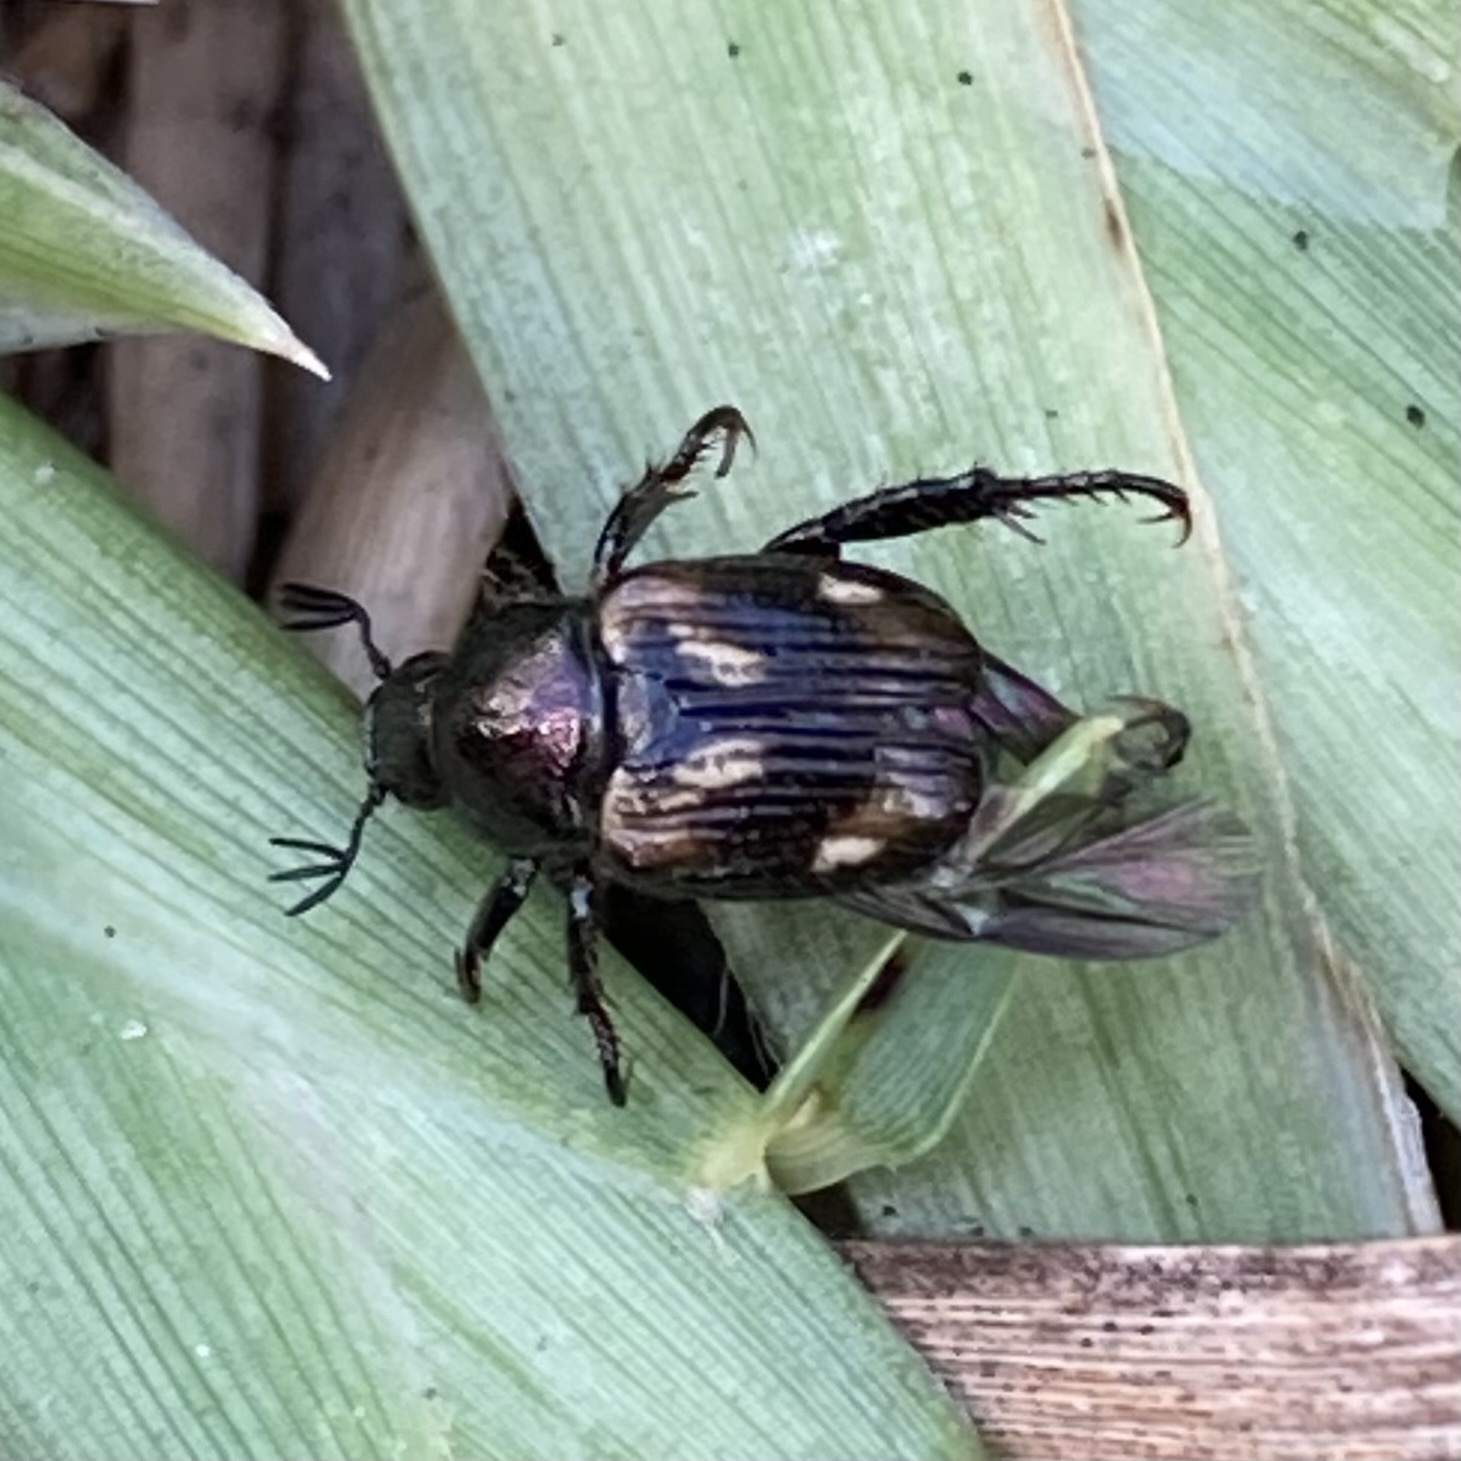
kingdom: Animalia
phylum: Arthropoda
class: Insecta
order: Coleoptera
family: Scarabaeidae
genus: Strigoderma
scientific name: Strigoderma pygmaea
